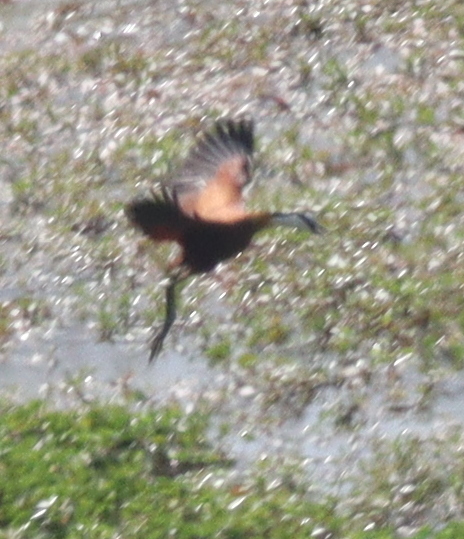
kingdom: Animalia
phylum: Chordata
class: Aves
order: Charadriiformes
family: Jacanidae
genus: Actophilornis
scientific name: Actophilornis africanus
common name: African jacana
